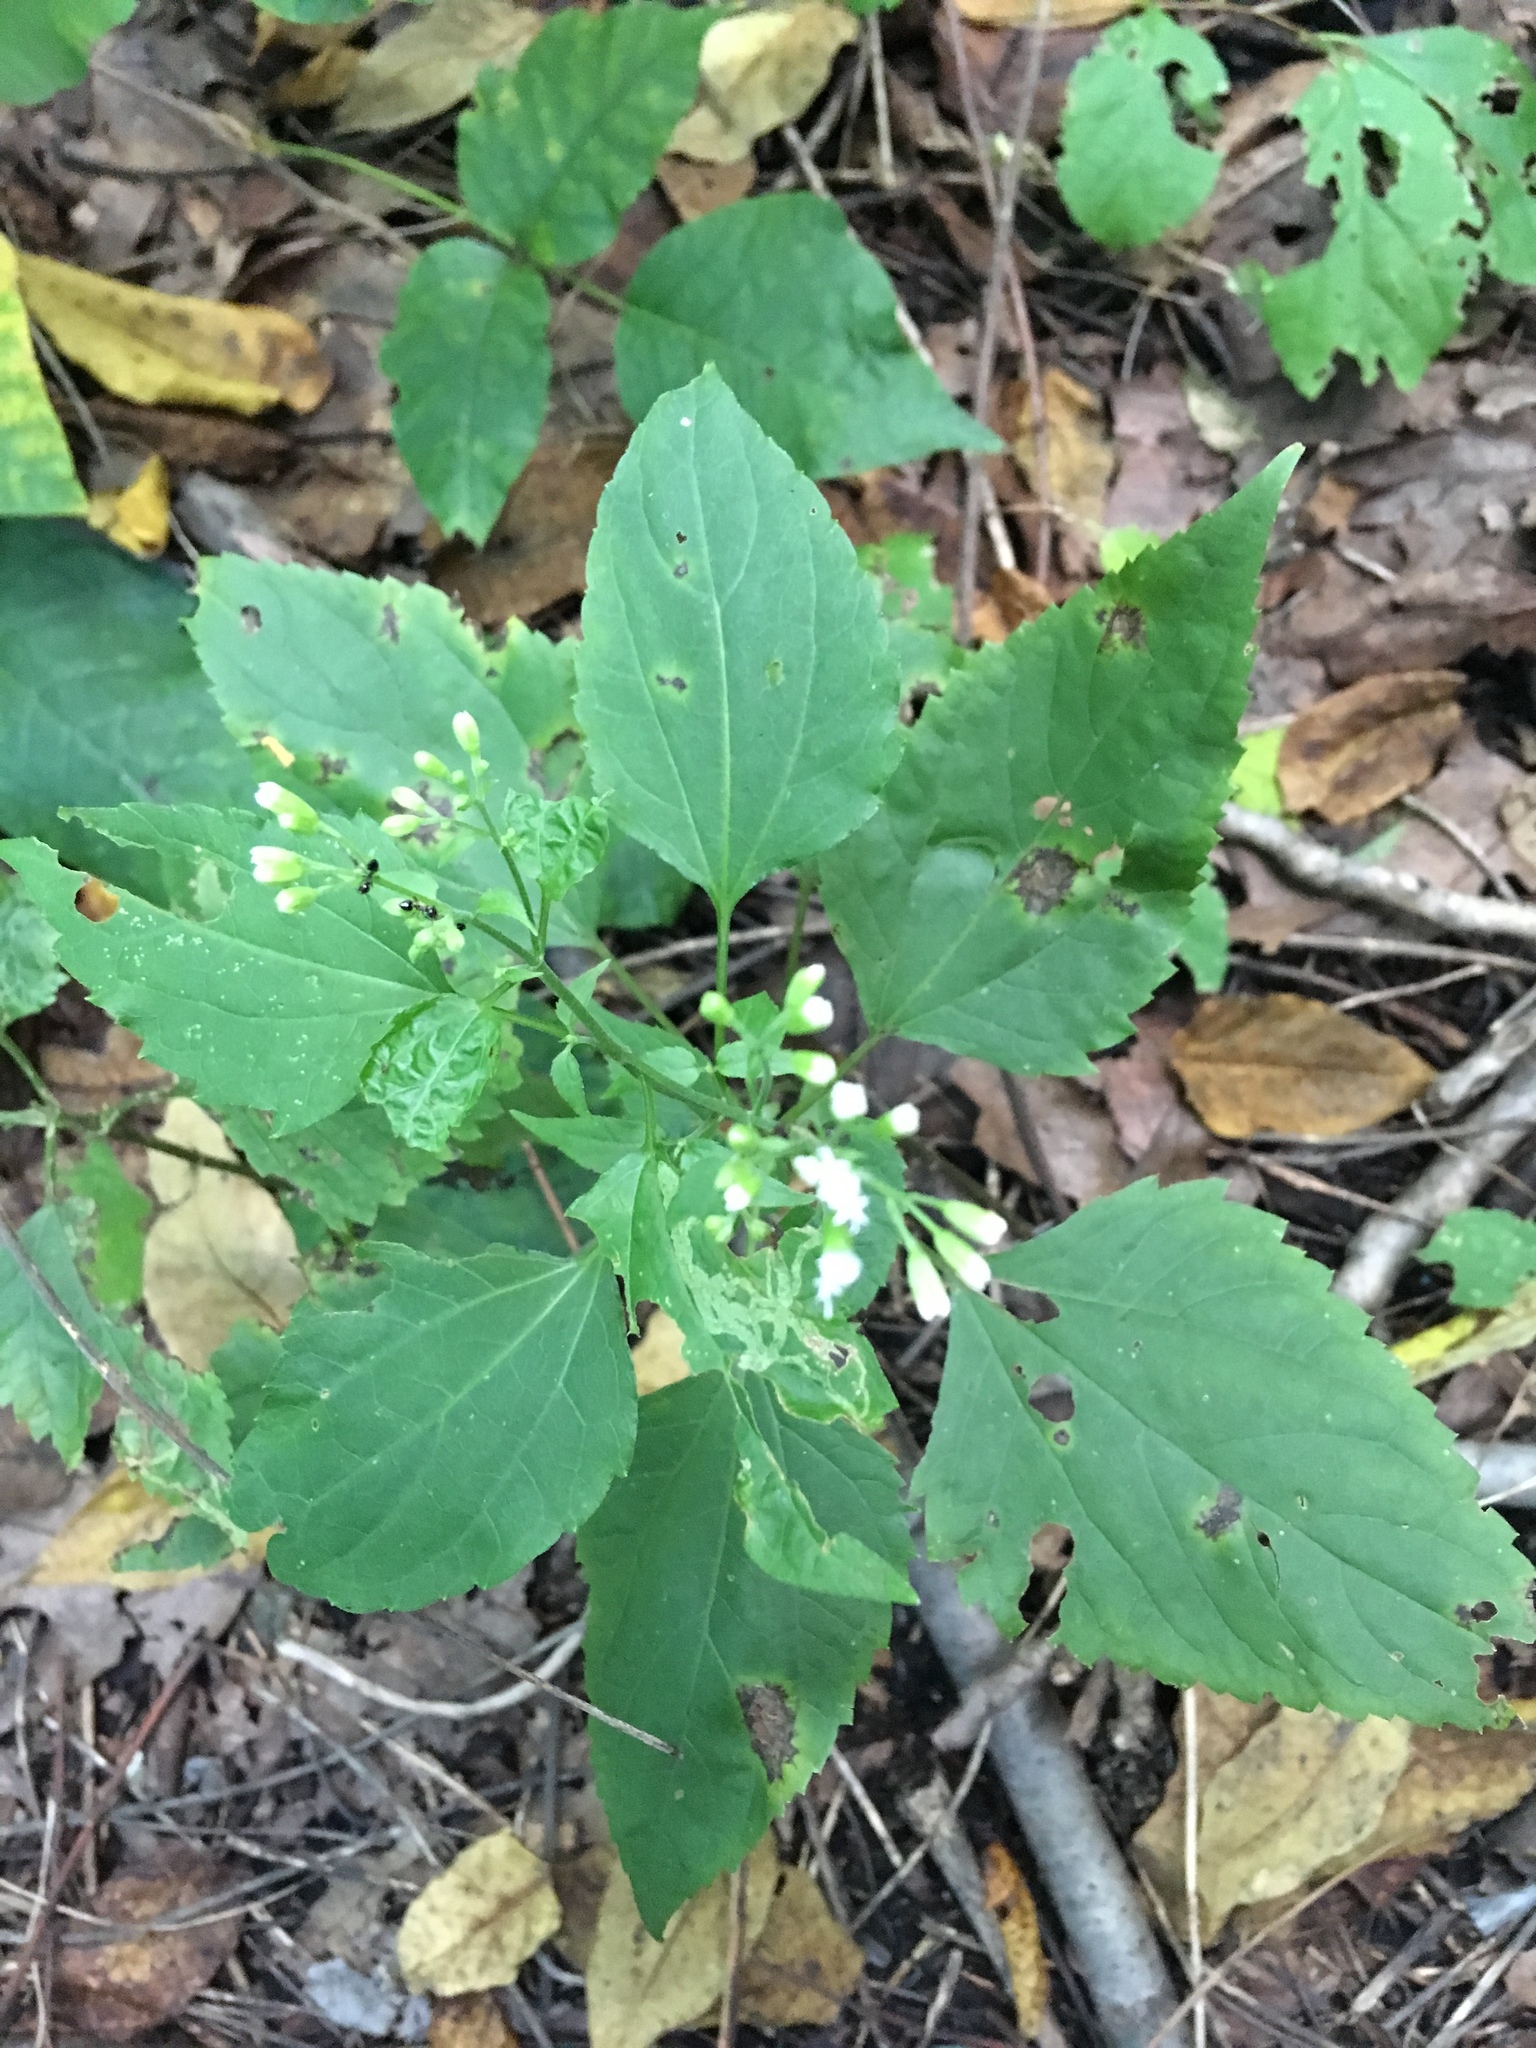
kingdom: Plantae
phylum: Tracheophyta
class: Magnoliopsida
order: Asterales
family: Asteraceae
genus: Ageratina
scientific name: Ageratina altissima
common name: White snakeroot
